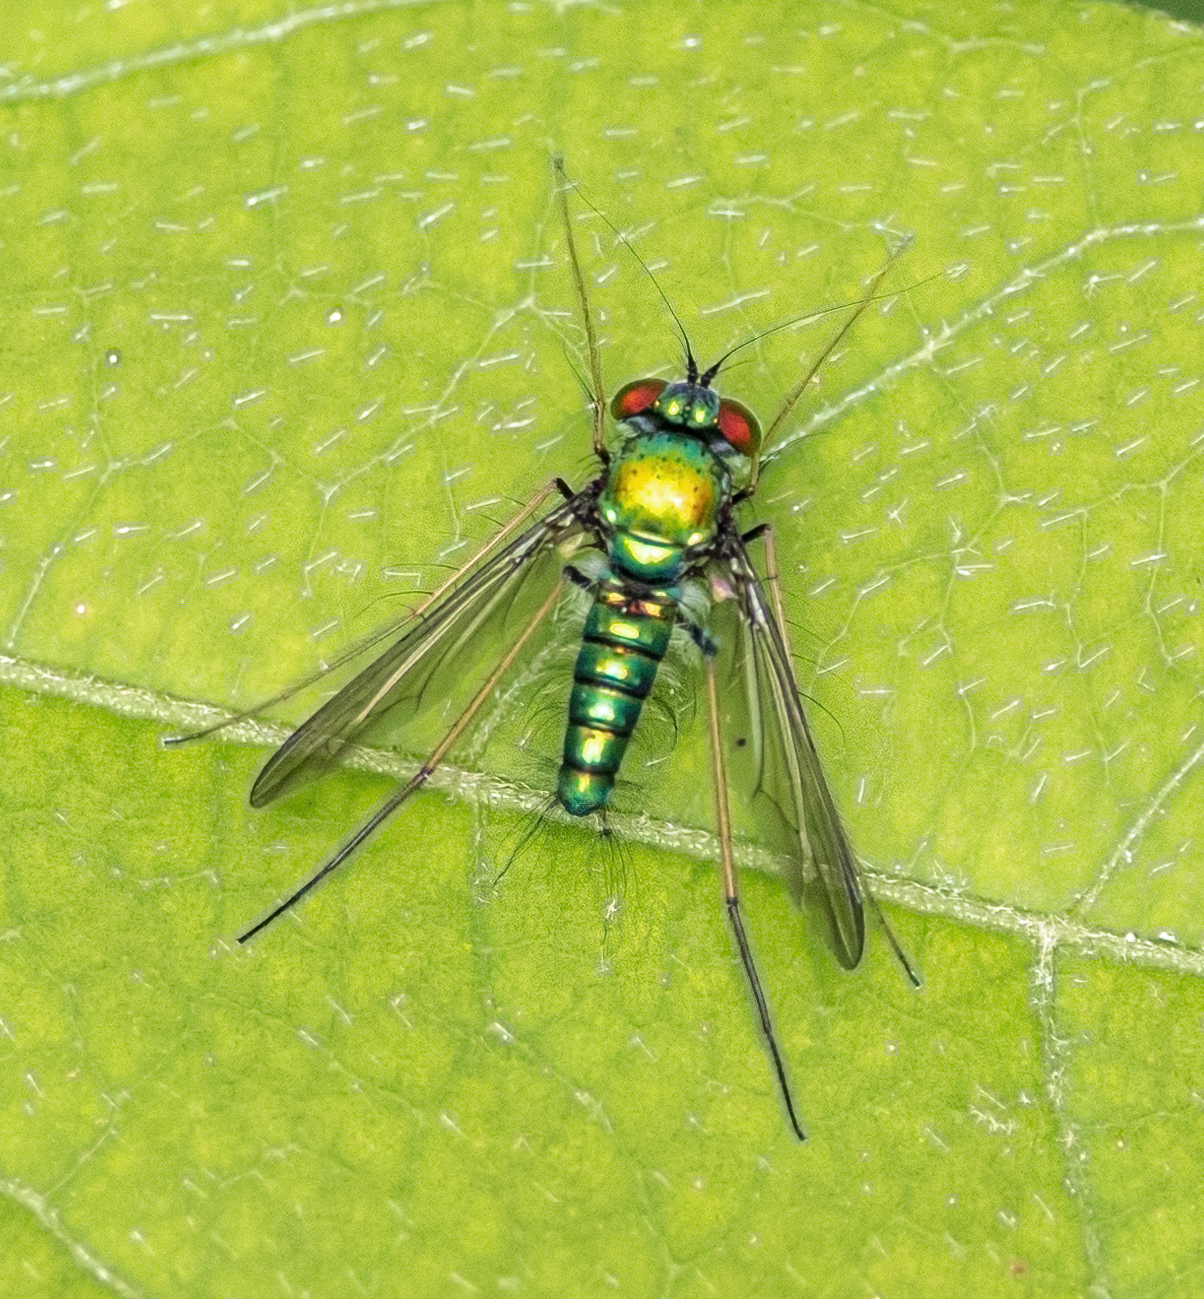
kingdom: Animalia
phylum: Arthropoda
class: Insecta
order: Diptera
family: Dolichopodidae
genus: Condylostylus
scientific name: Condylostylus comatus
